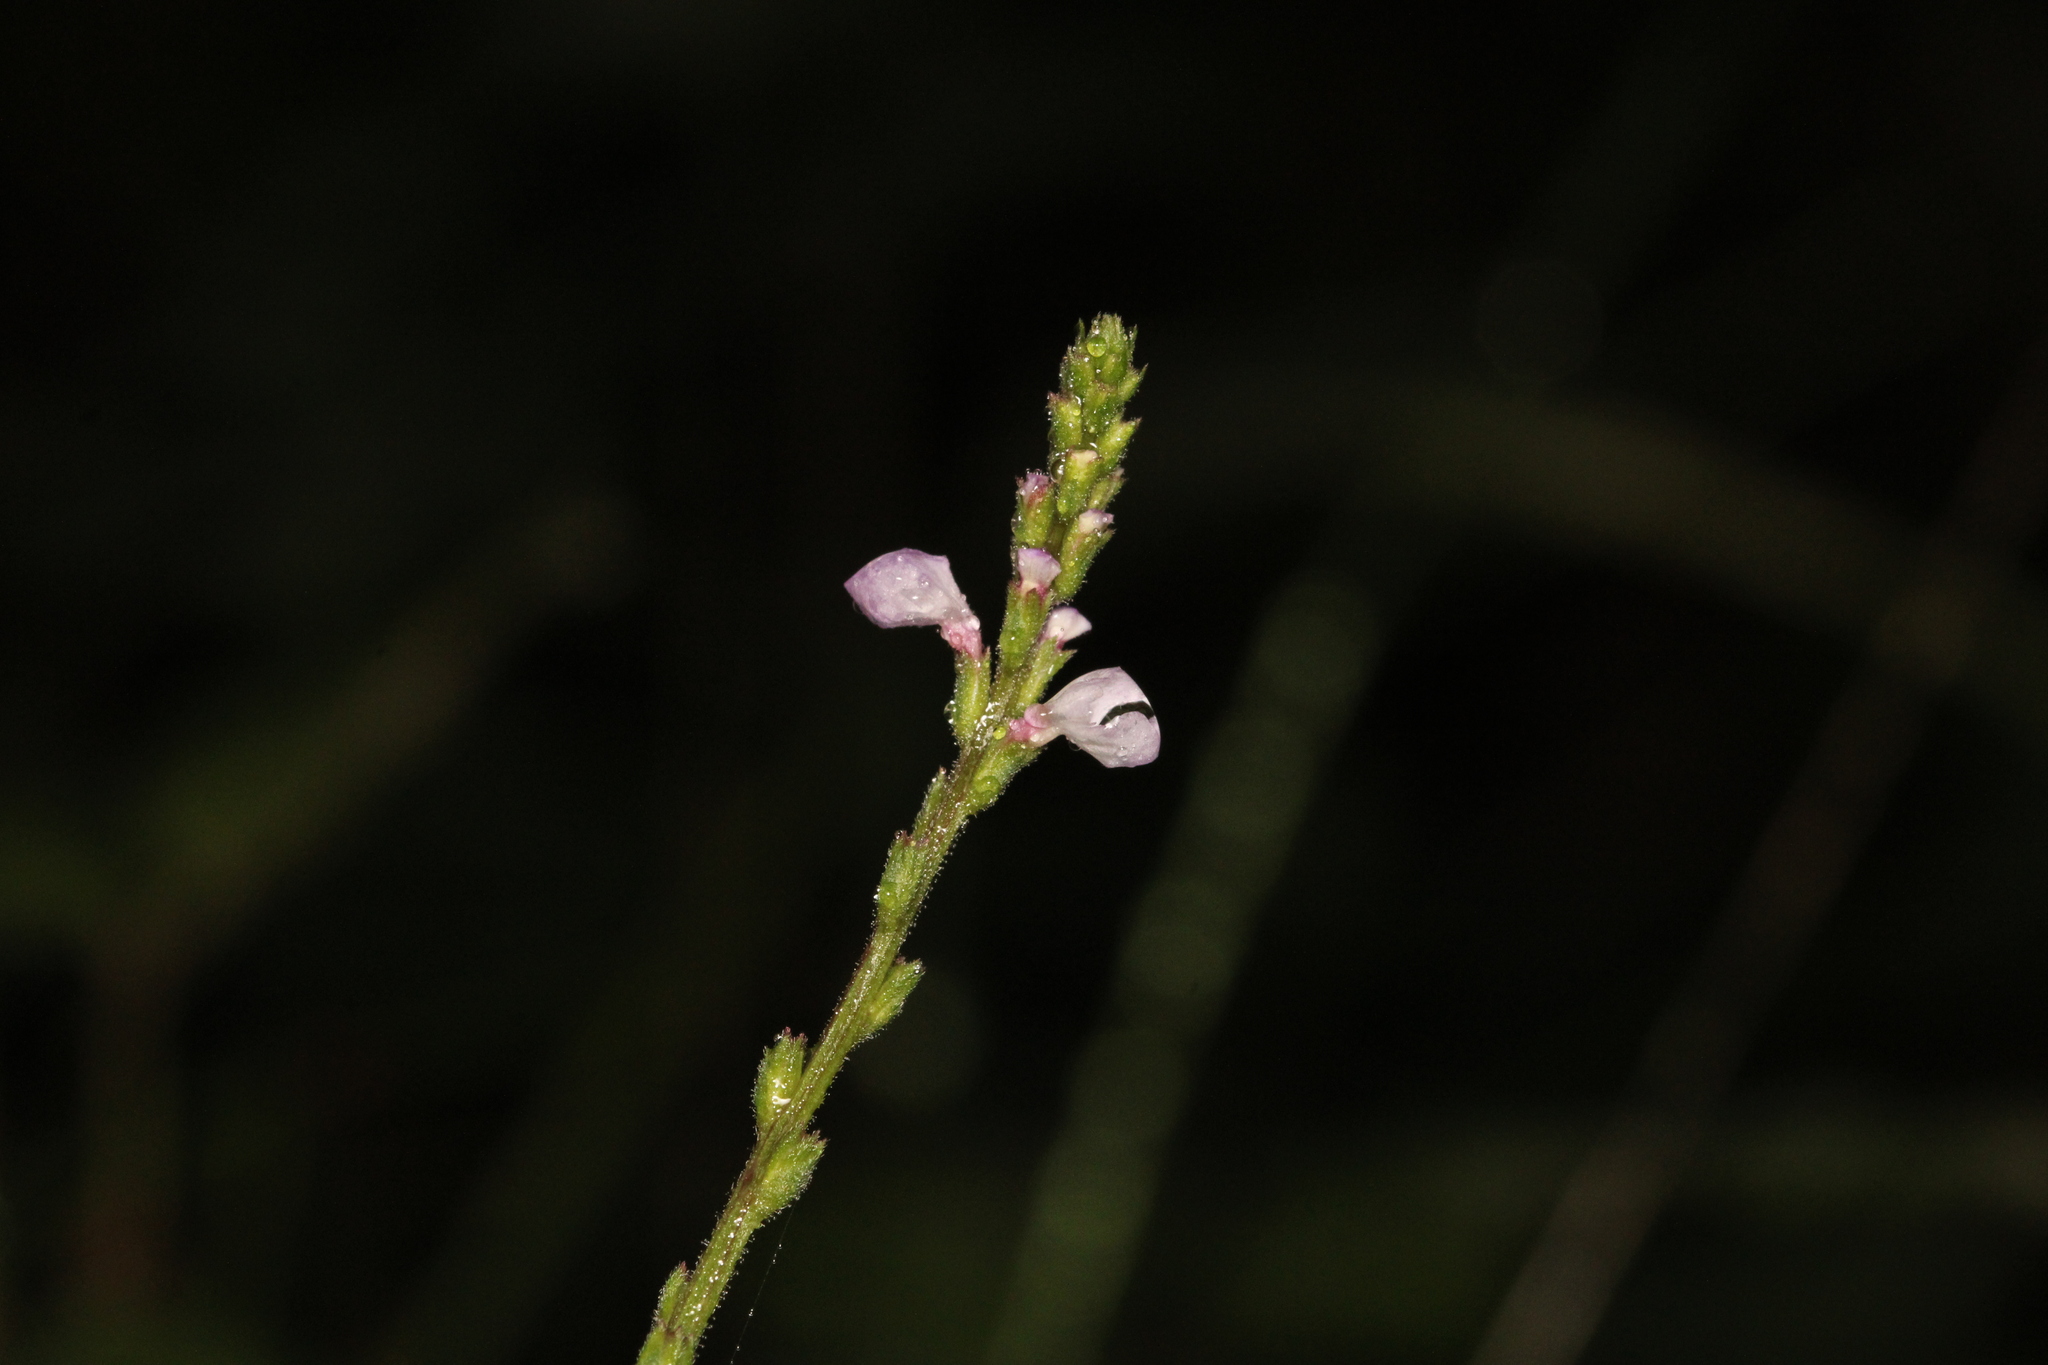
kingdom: Plantae
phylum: Tracheophyta
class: Magnoliopsida
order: Lamiales
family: Verbenaceae
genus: Verbena
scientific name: Verbena officinalis
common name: Vervain
